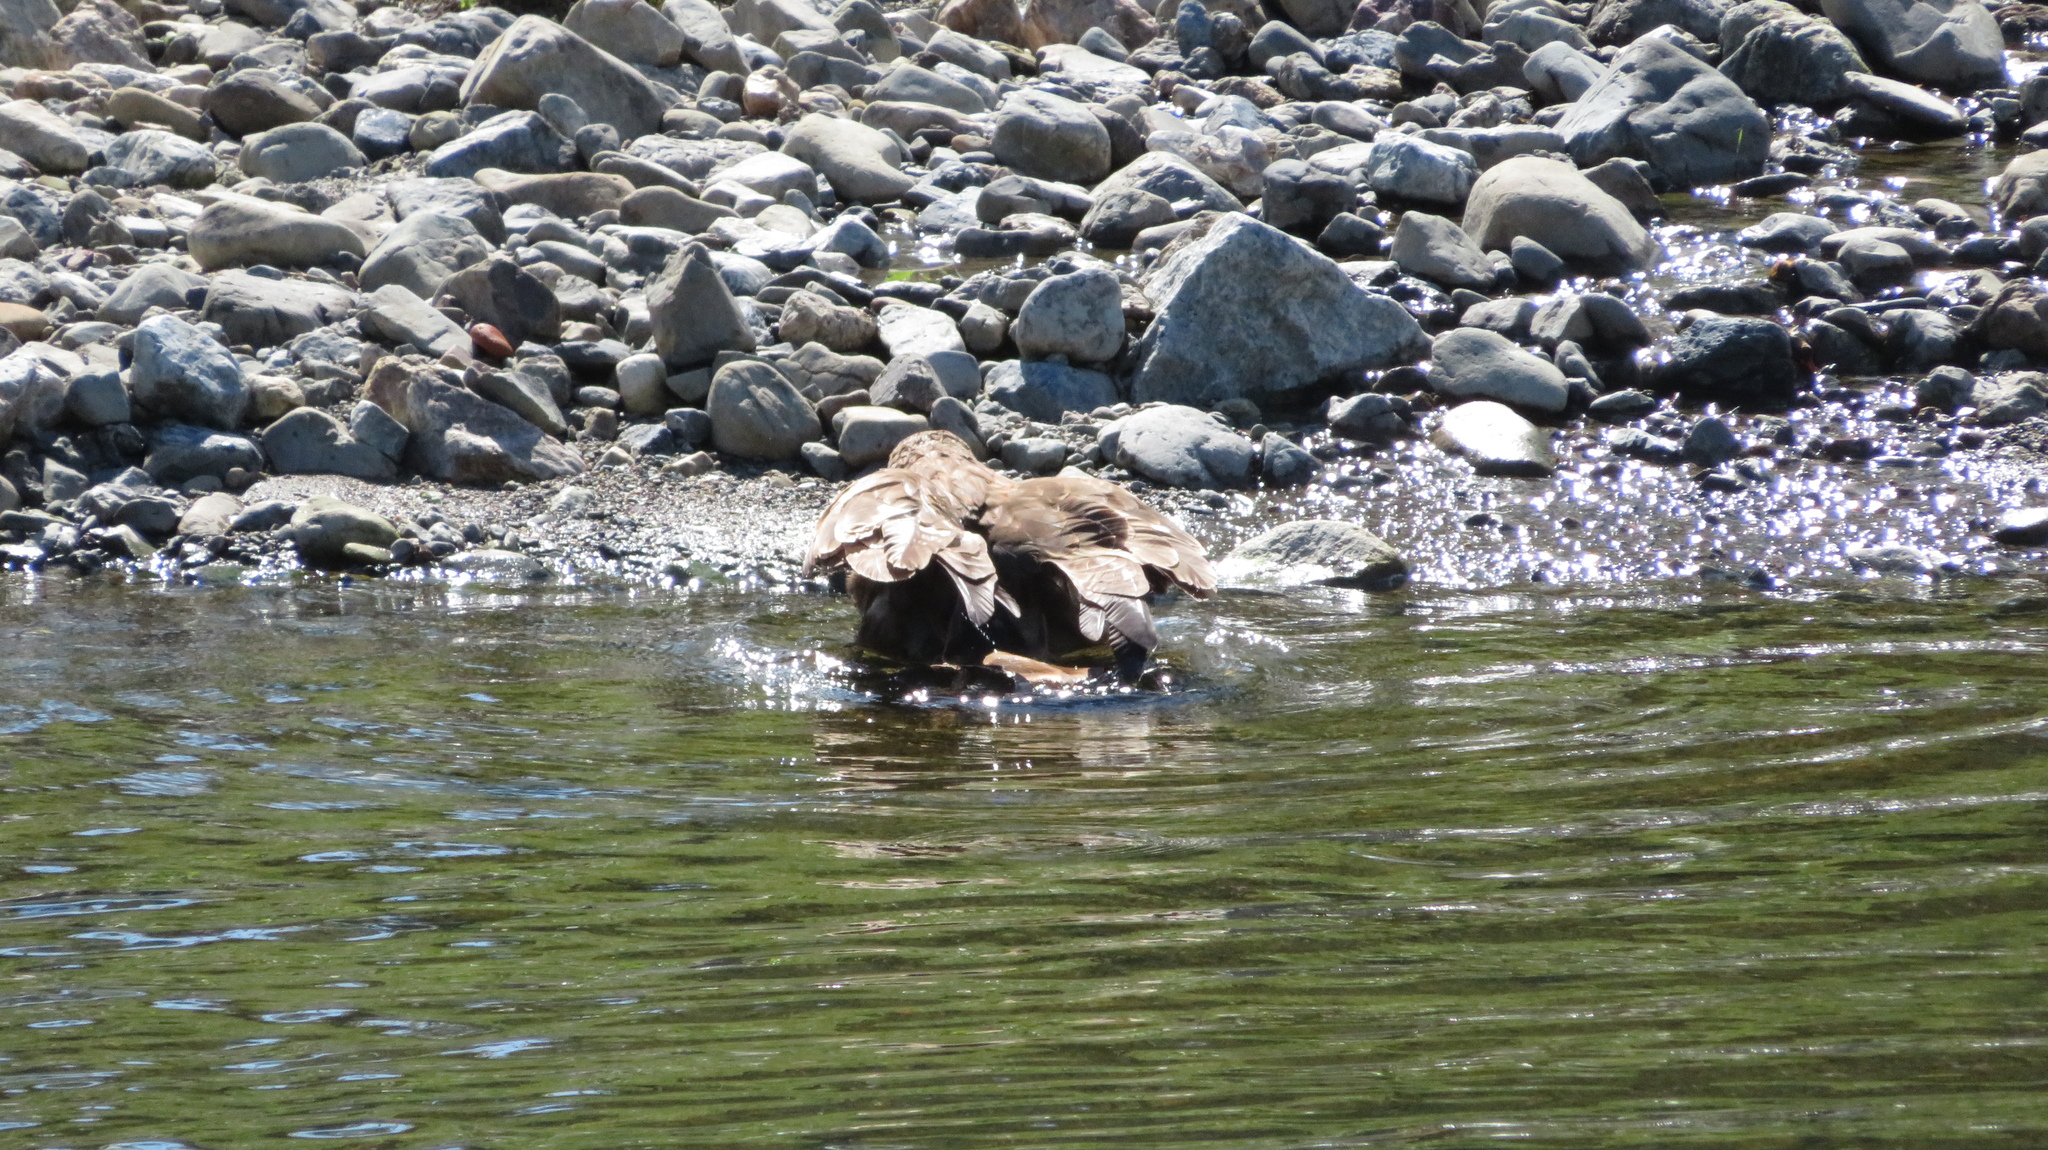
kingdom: Animalia
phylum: Chordata
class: Aves
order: Accipitriformes
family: Accipitridae
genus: Milvus
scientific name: Milvus migrans
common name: Black kite
